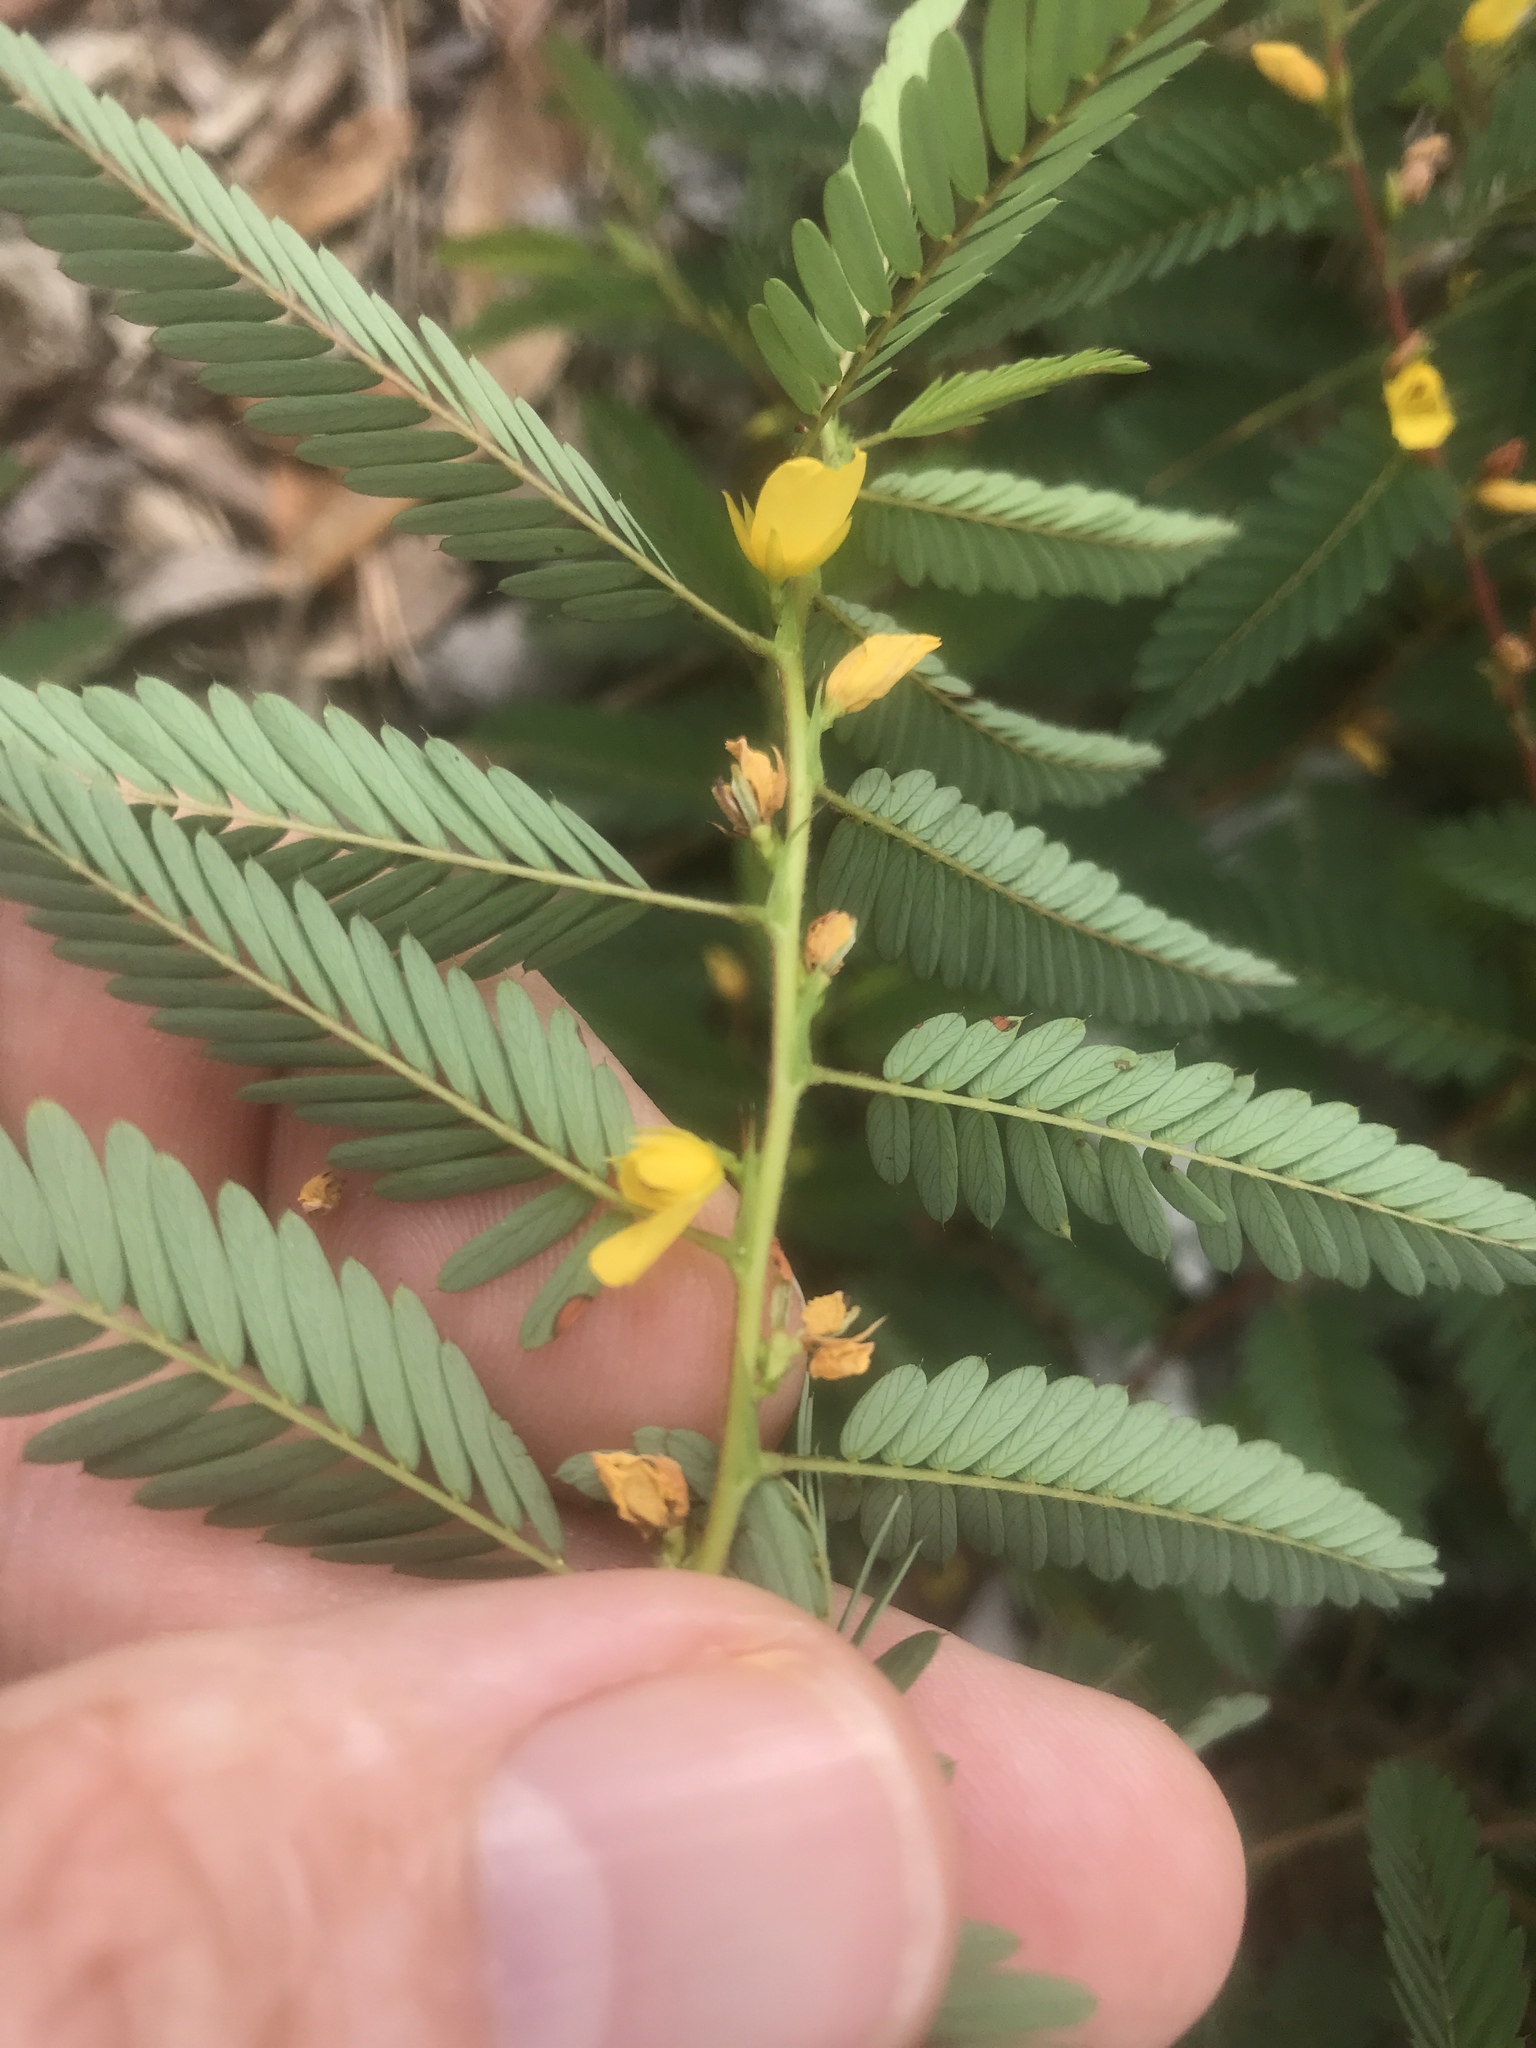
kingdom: Plantae
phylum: Tracheophyta
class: Magnoliopsida
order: Fabales
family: Fabaceae
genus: Chamaecrista
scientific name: Chamaecrista nictitans
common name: Sensitive cassia
